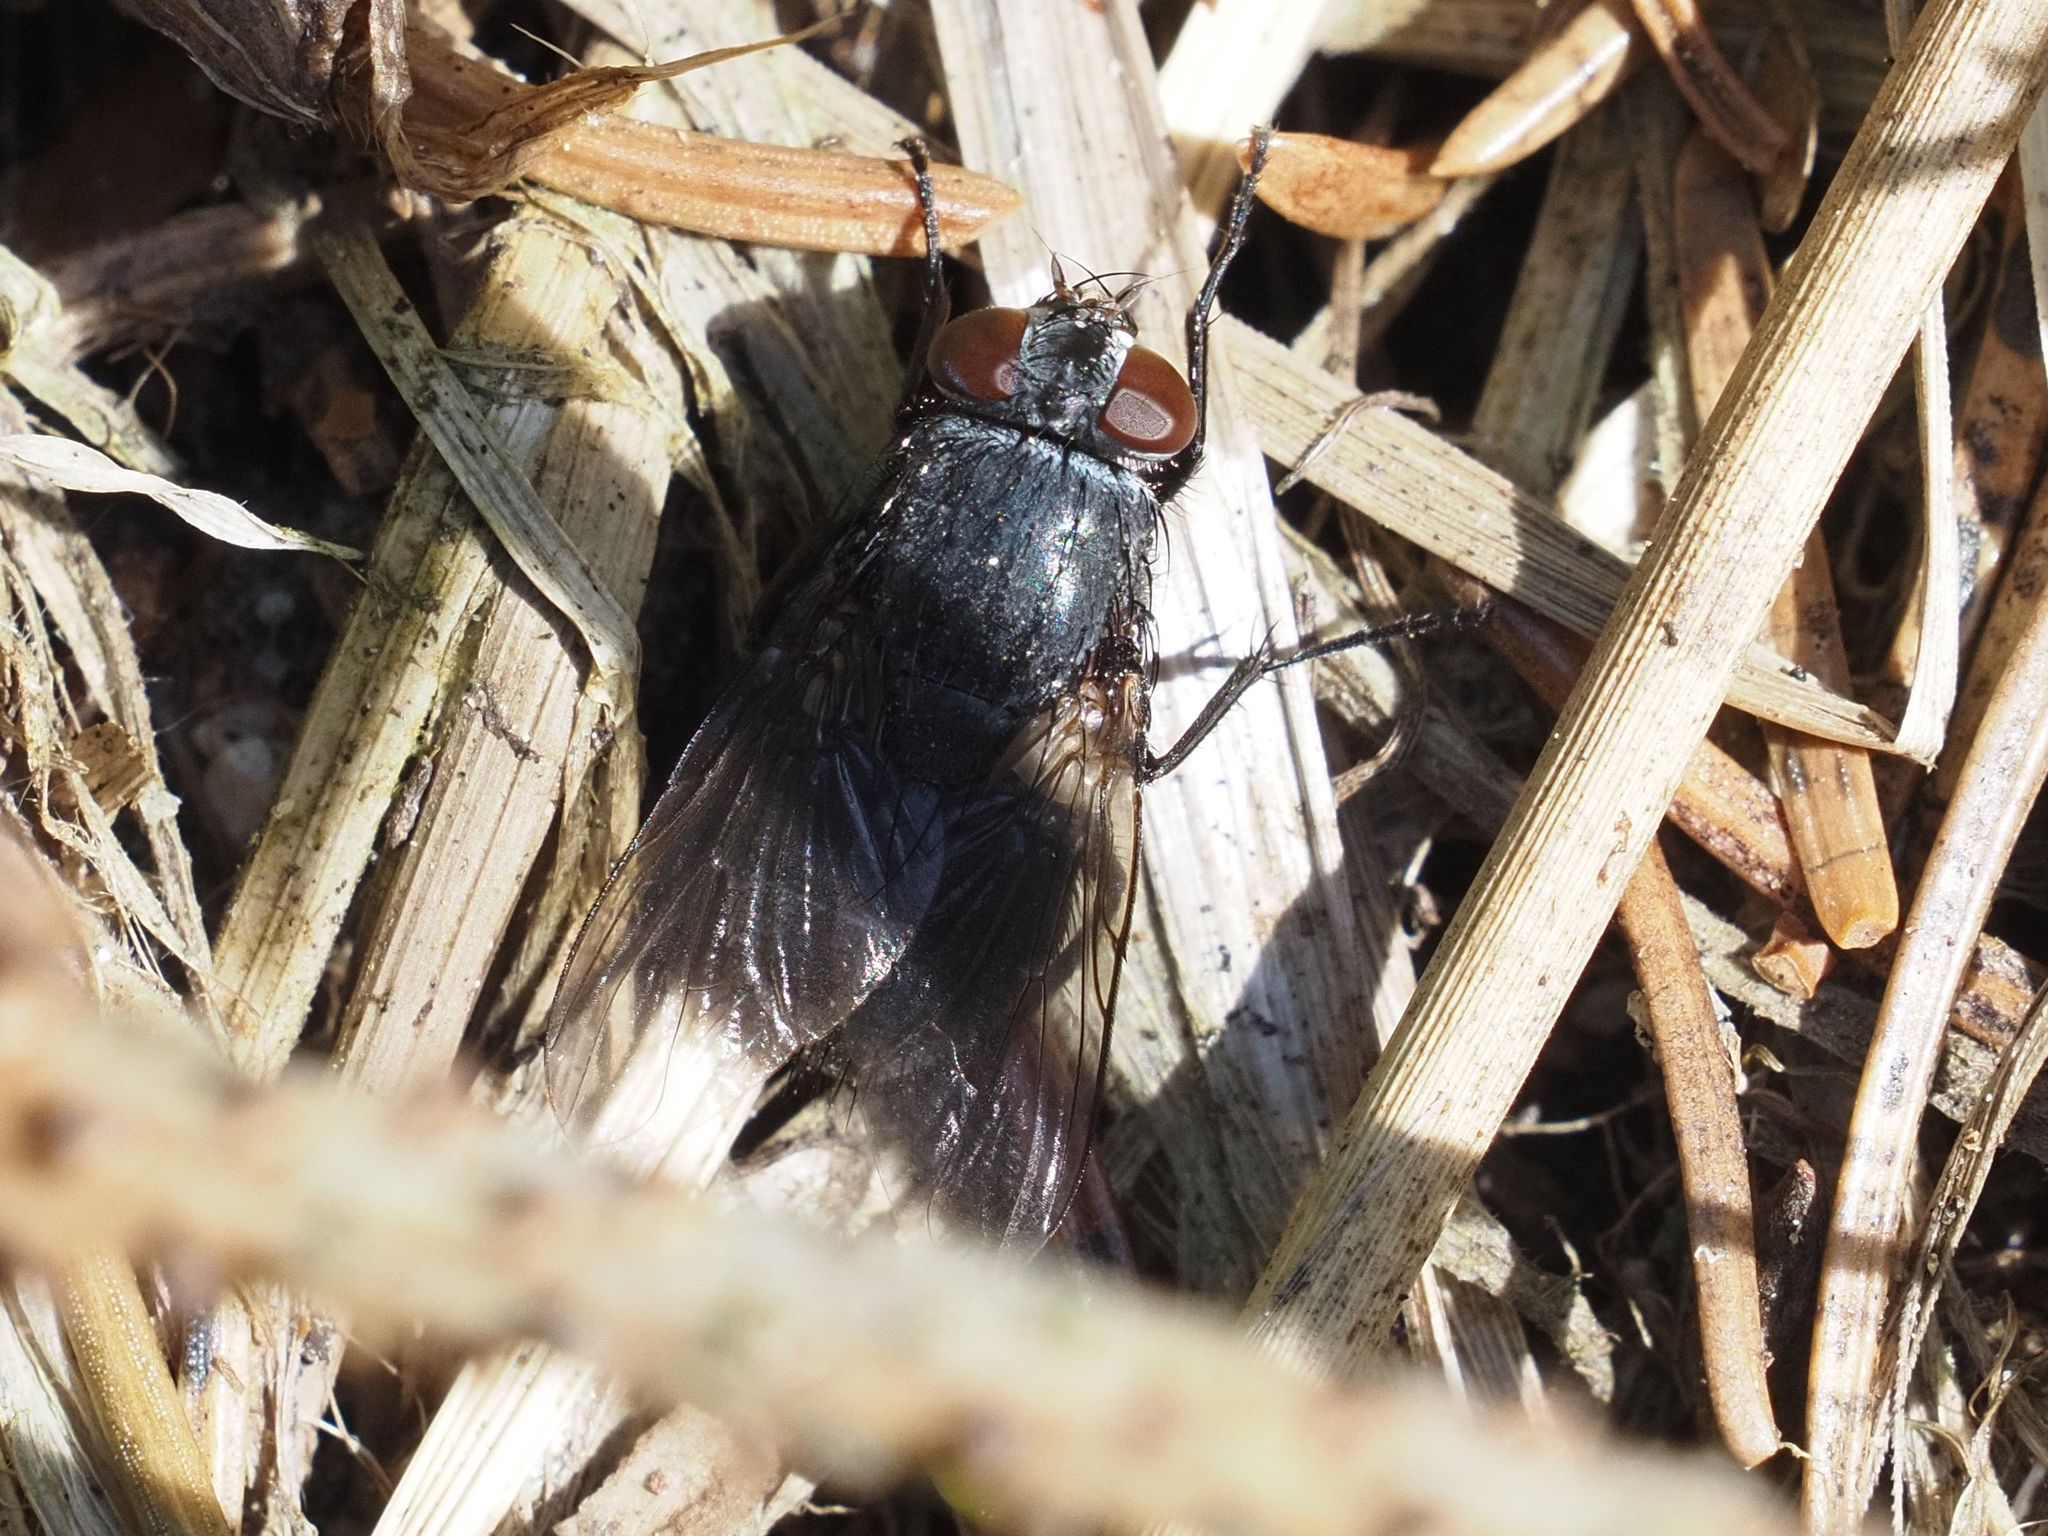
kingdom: Animalia
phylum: Arthropoda
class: Insecta
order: Diptera
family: Muscidae
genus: Muscina
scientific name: Muscina pascuorum
